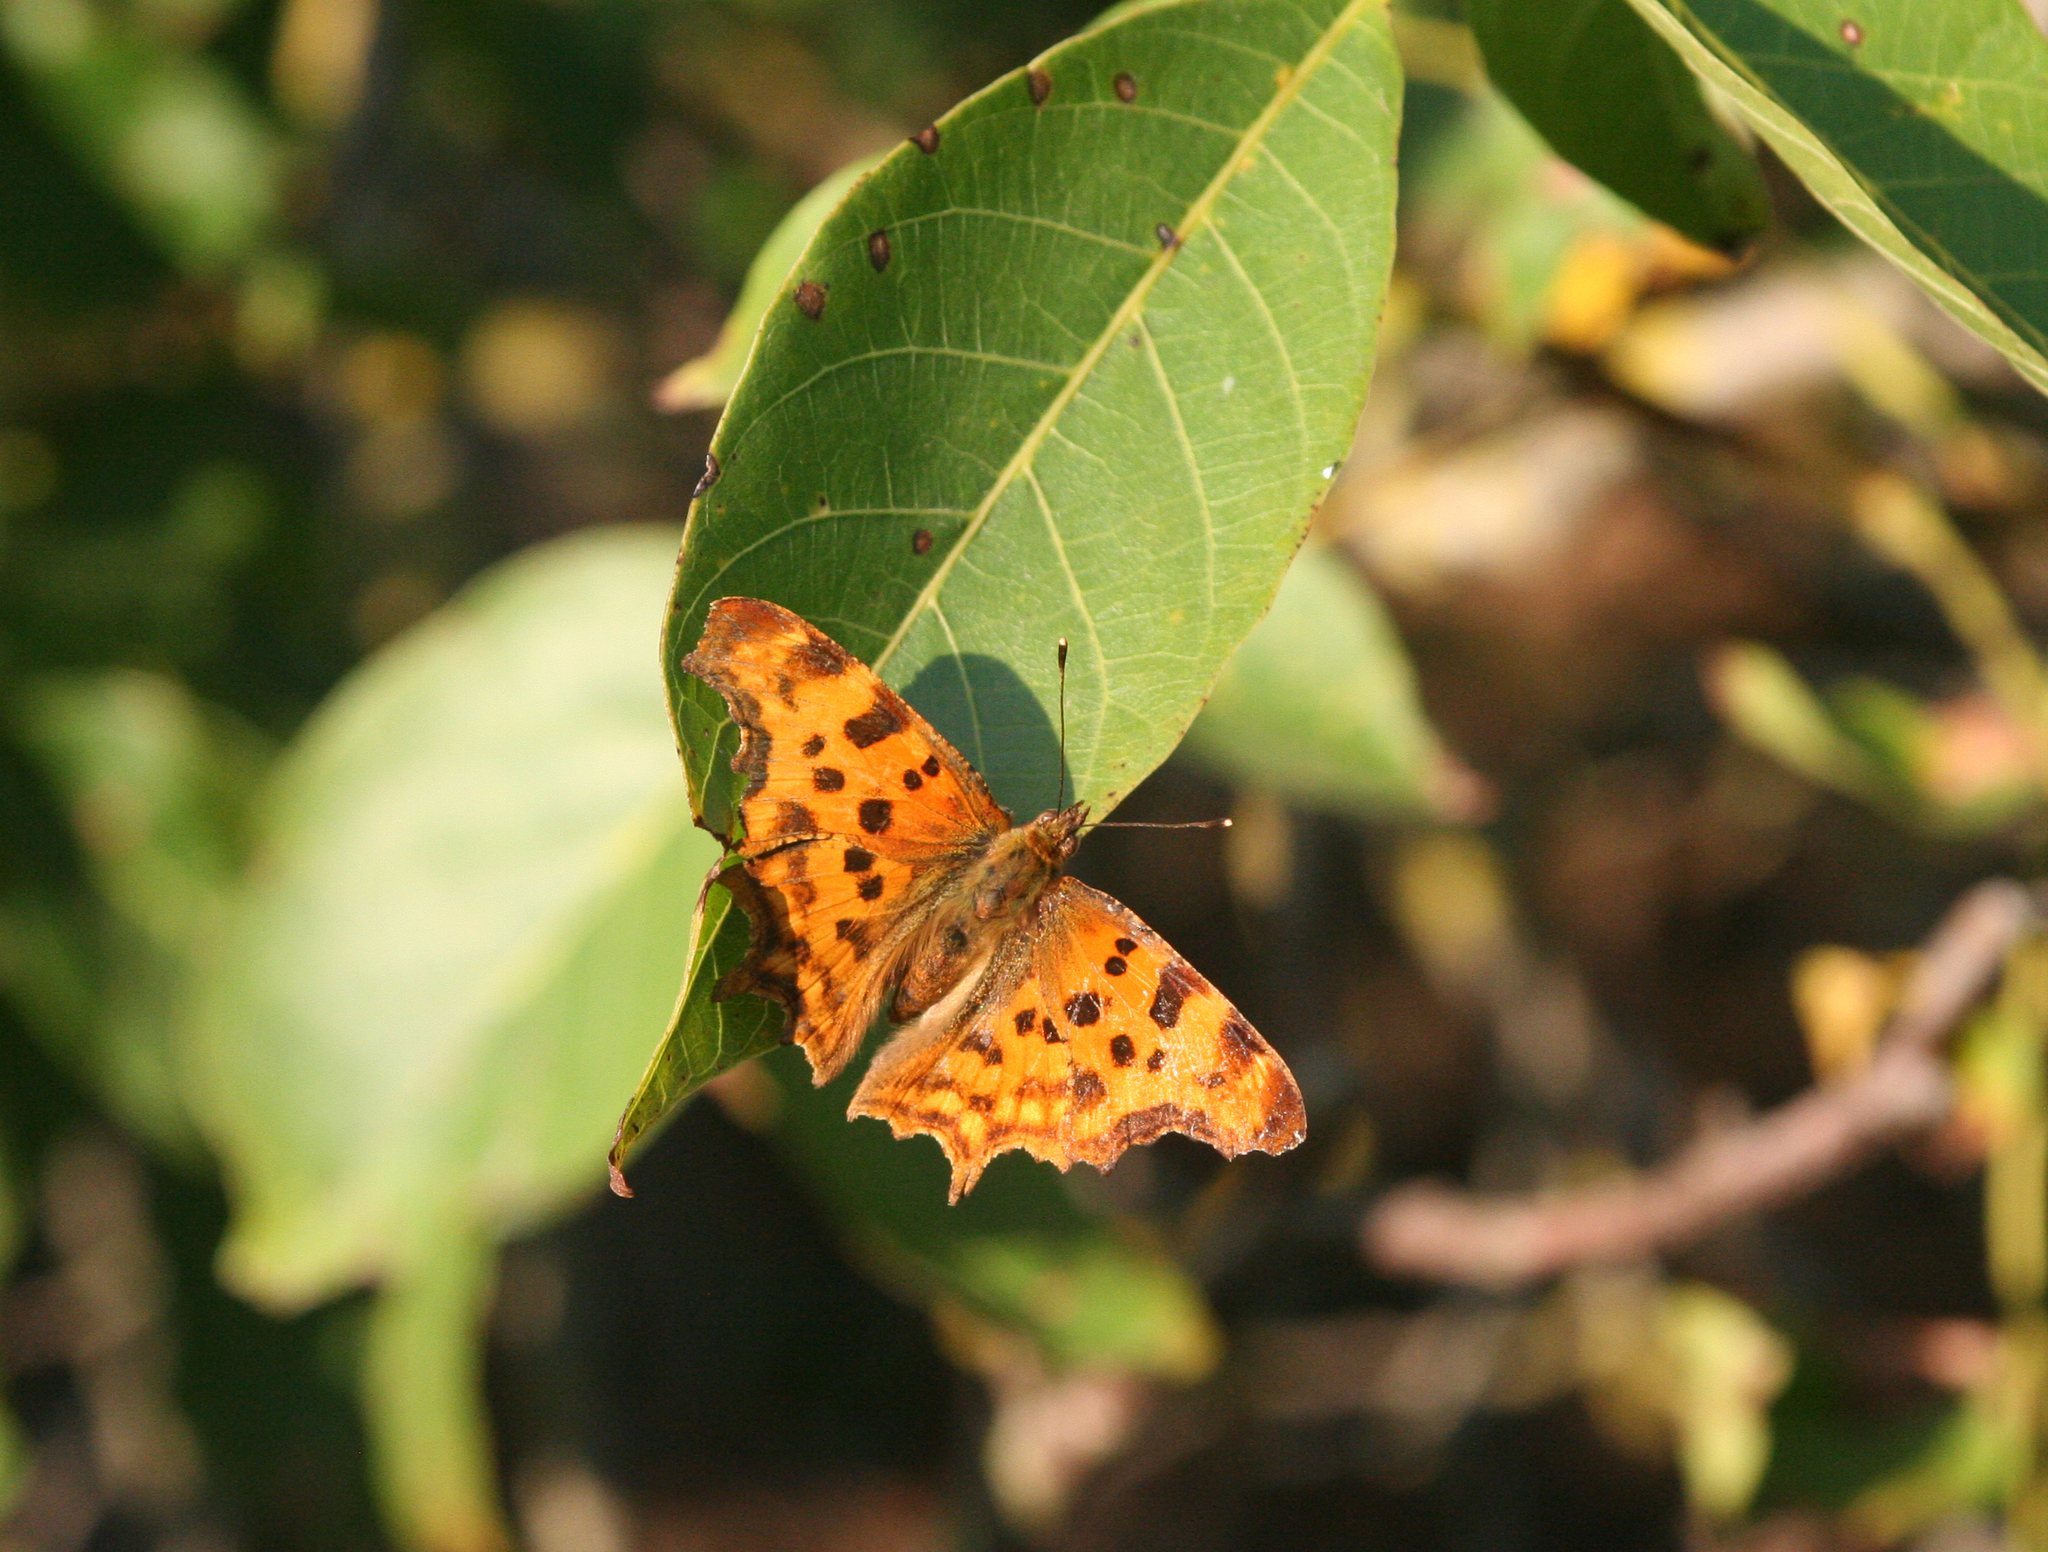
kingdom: Animalia
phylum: Arthropoda
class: Insecta
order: Lepidoptera
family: Nymphalidae
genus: Polygonia
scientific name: Polygonia c-album
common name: Comma
